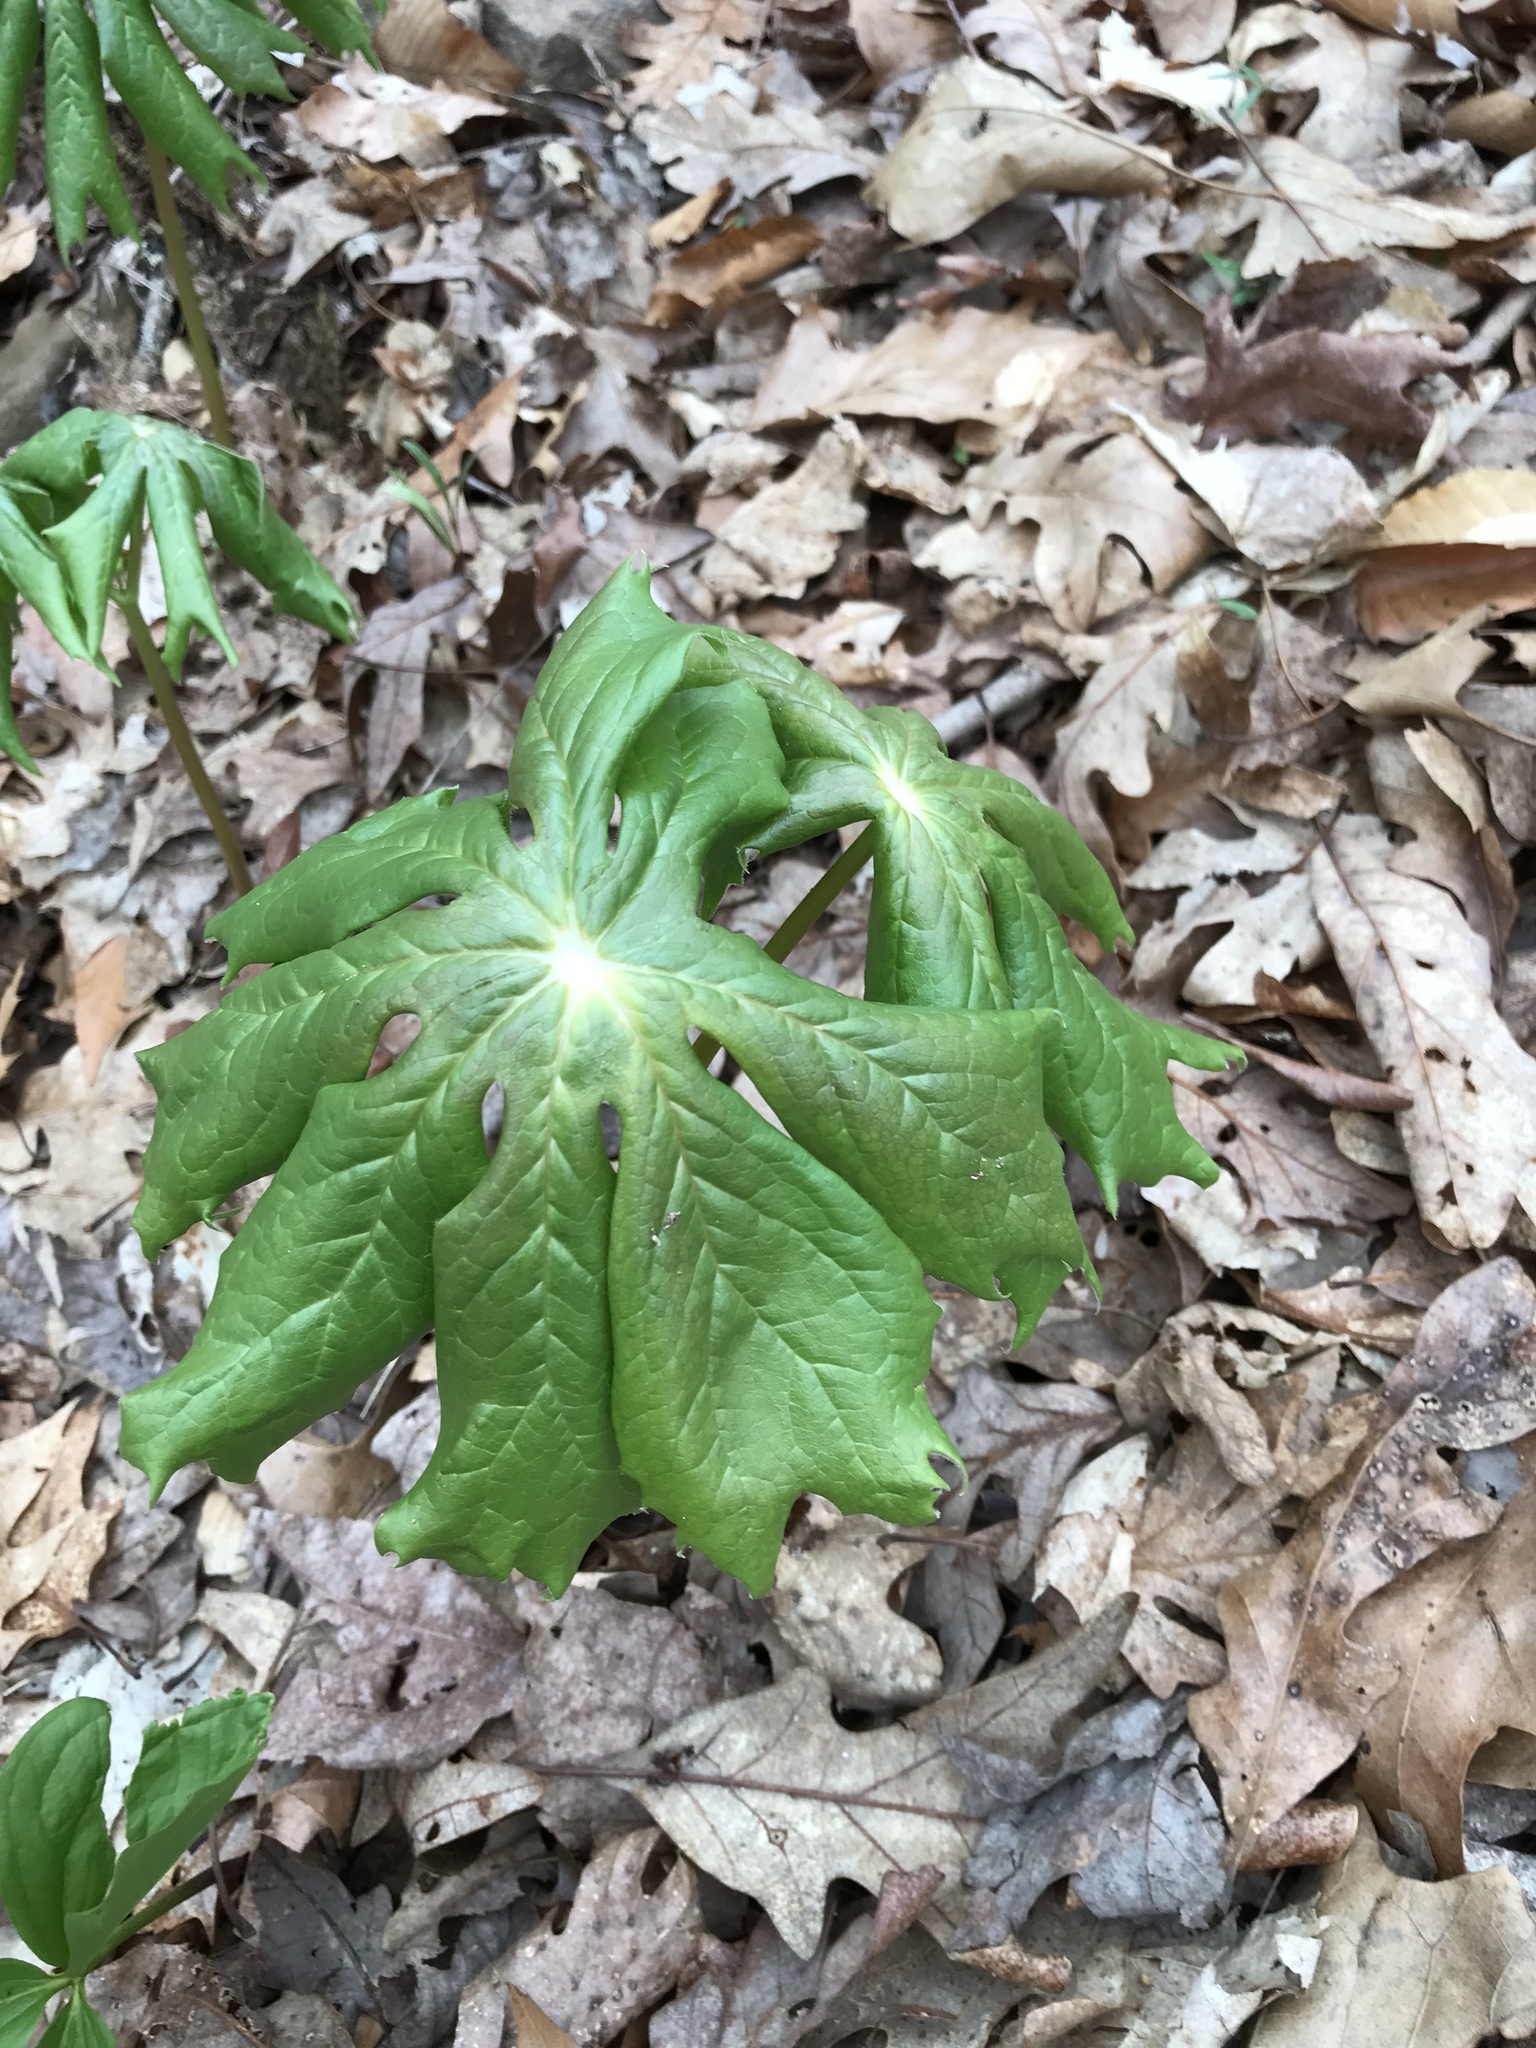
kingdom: Plantae
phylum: Tracheophyta
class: Magnoliopsida
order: Ranunculales
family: Berberidaceae
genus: Podophyllum
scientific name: Podophyllum peltatum
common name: Wild mandrake
